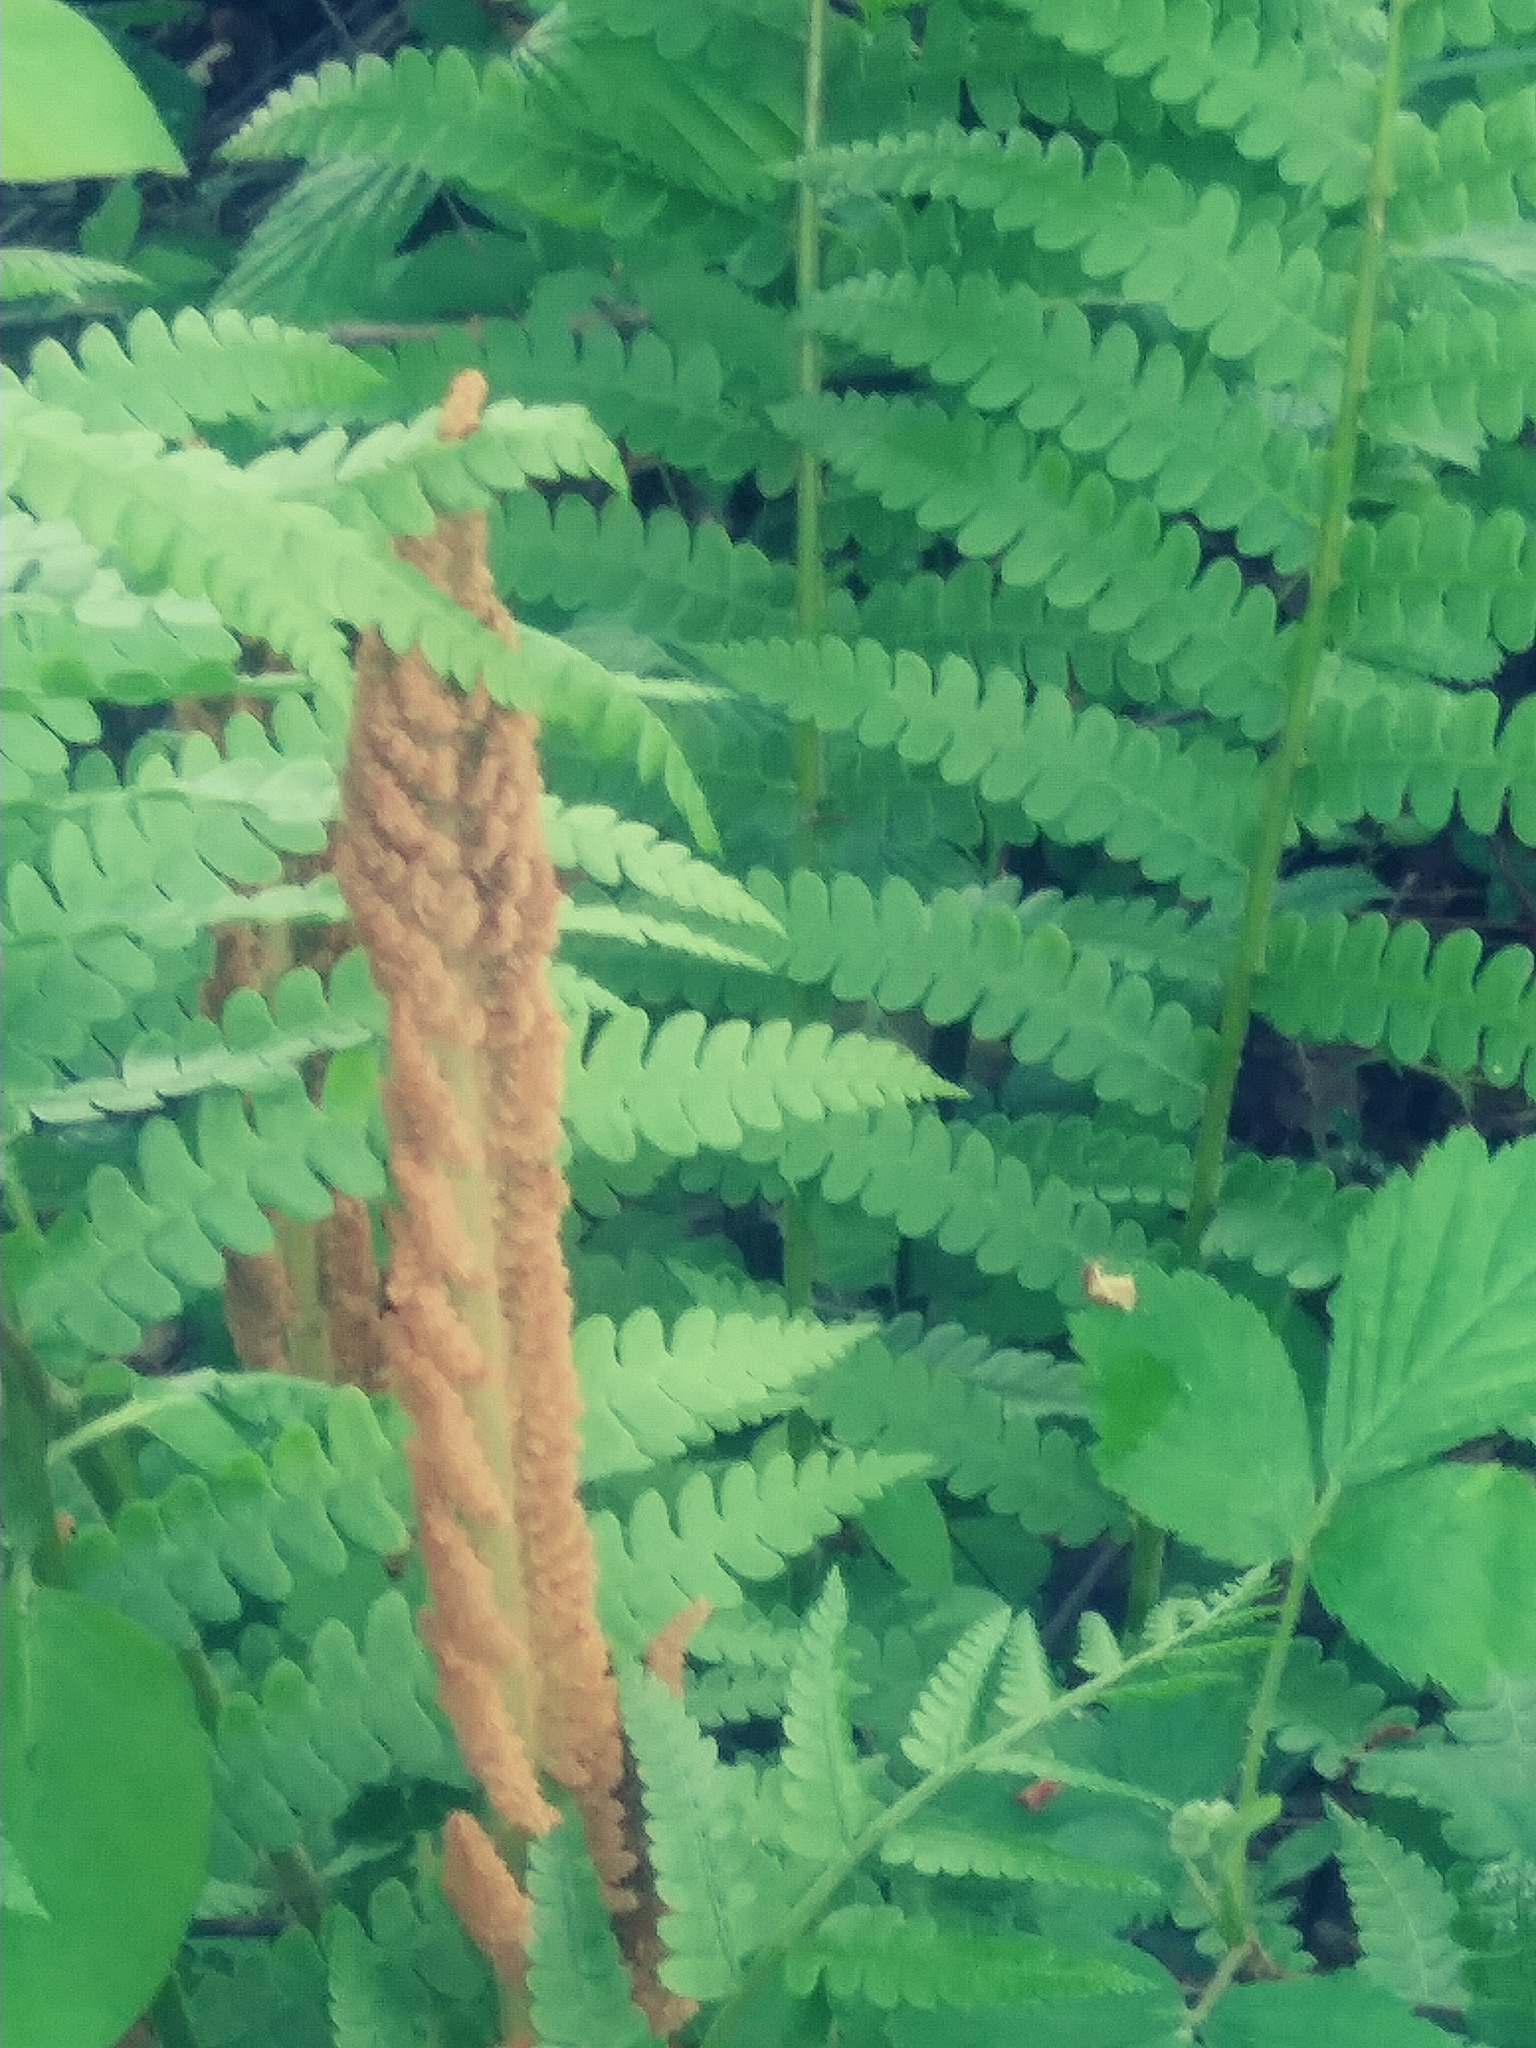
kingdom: Plantae
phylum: Tracheophyta
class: Polypodiopsida
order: Osmundales
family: Osmundaceae
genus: Osmundastrum
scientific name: Osmundastrum cinnamomeum
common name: Cinnamon fern
